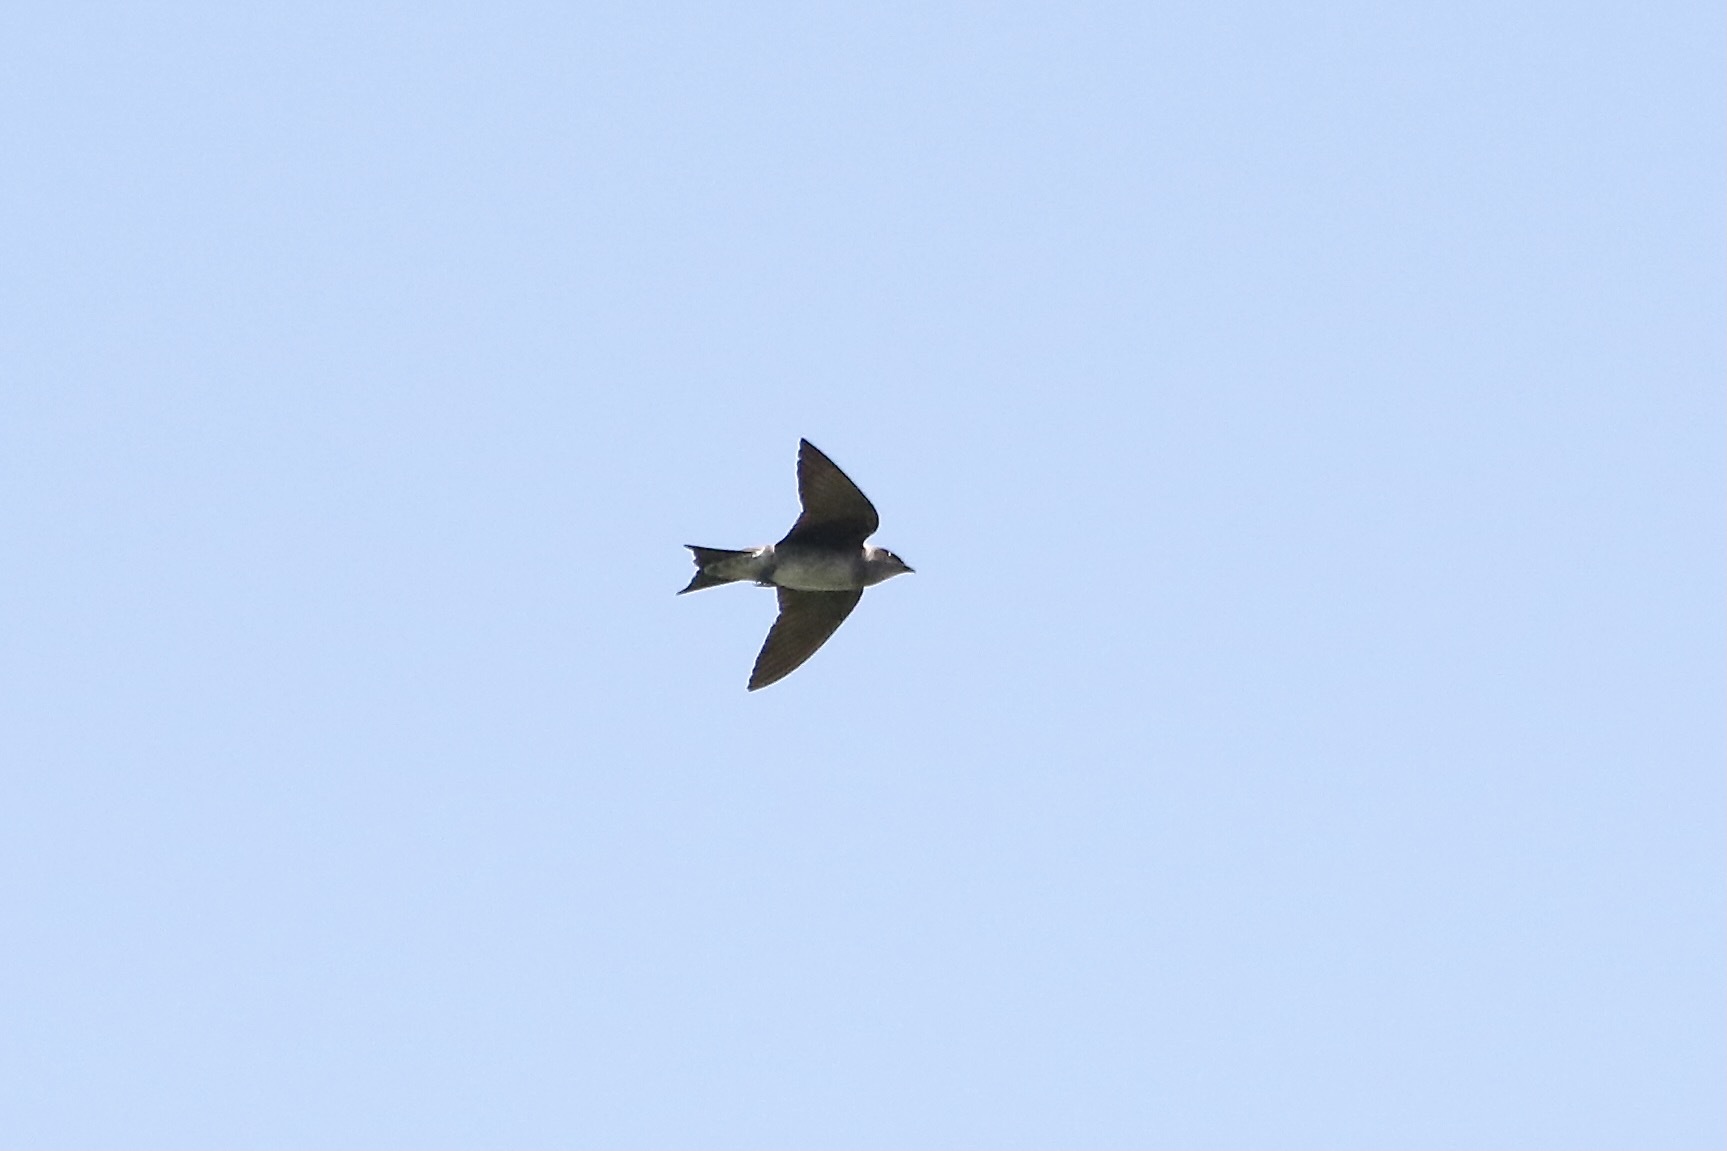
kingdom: Animalia
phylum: Chordata
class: Aves
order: Passeriformes
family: Hirundinidae
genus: Progne
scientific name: Progne subis
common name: Purple martin
